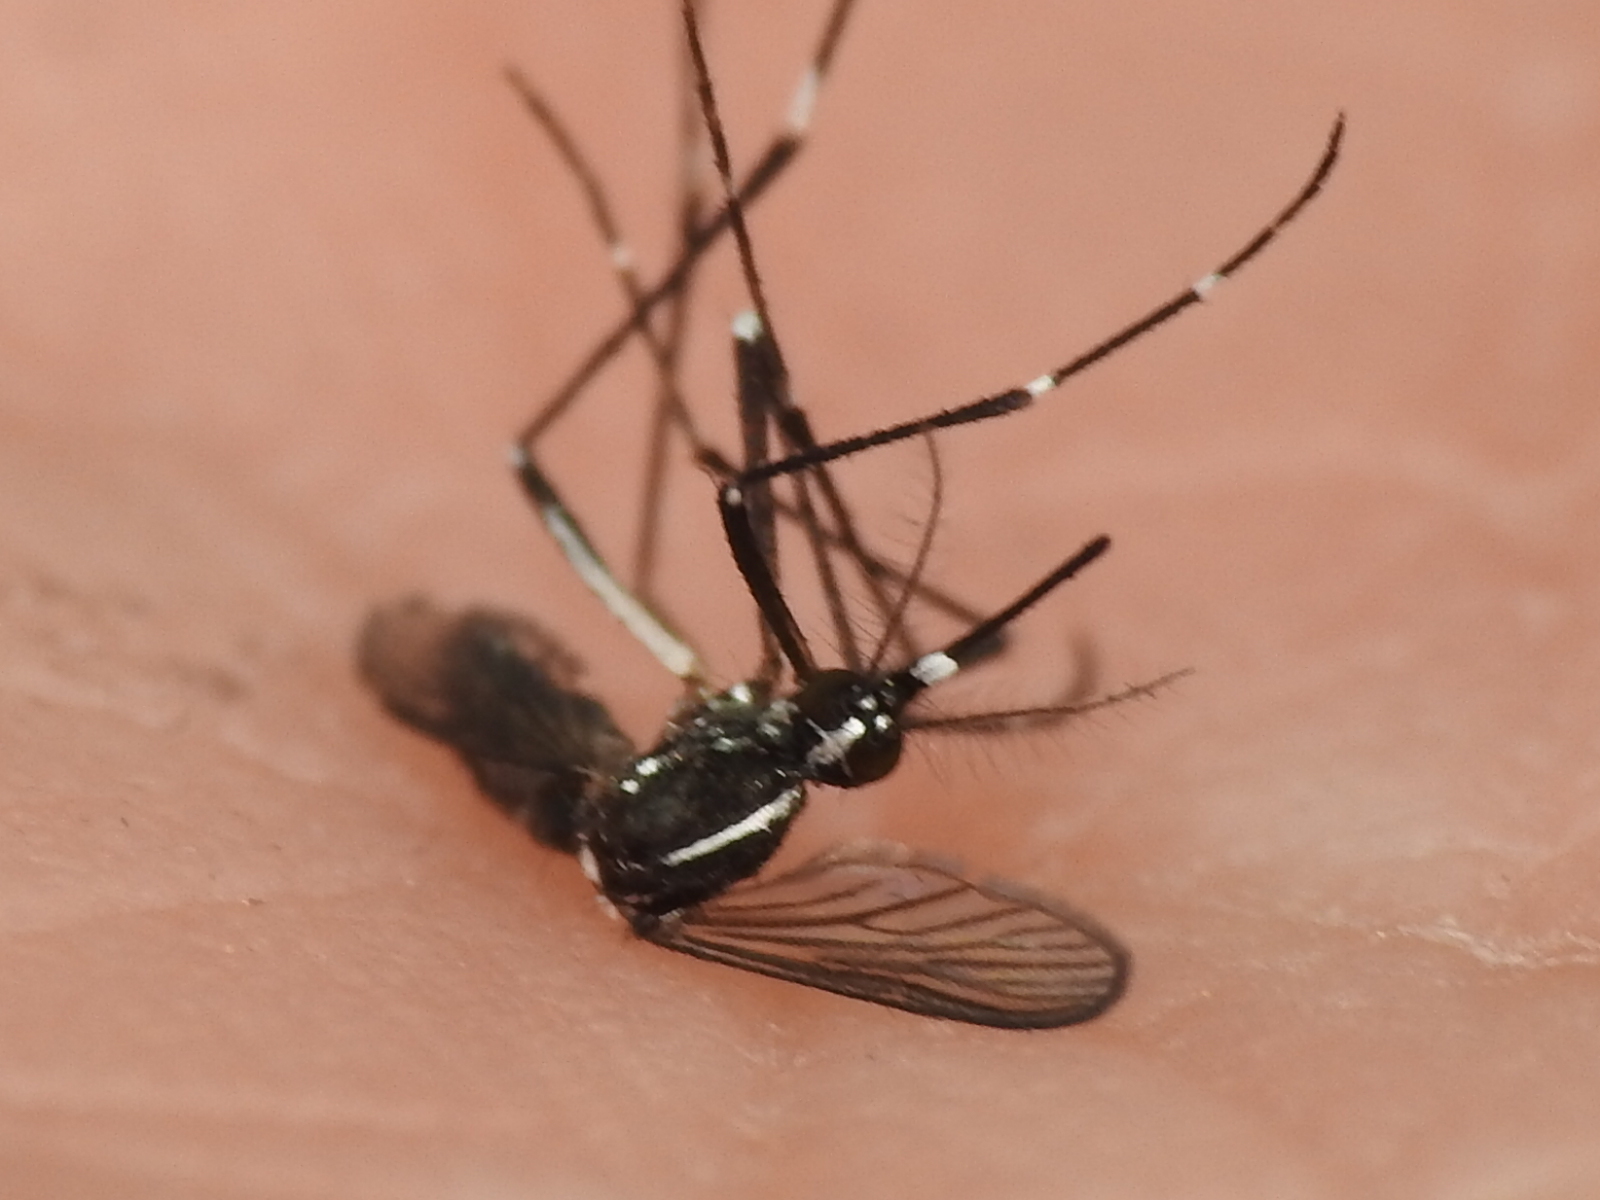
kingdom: Animalia
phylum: Arthropoda
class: Insecta
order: Diptera
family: Culicidae
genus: Aedes
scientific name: Aedes albopictus
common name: Tiger mosquito
